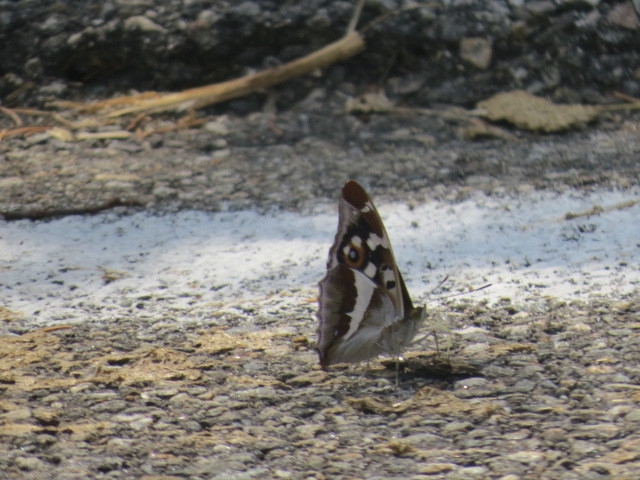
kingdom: Animalia
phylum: Arthropoda
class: Insecta
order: Lepidoptera
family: Nymphalidae
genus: Apatura
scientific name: Apatura iris
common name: Purple emperor
